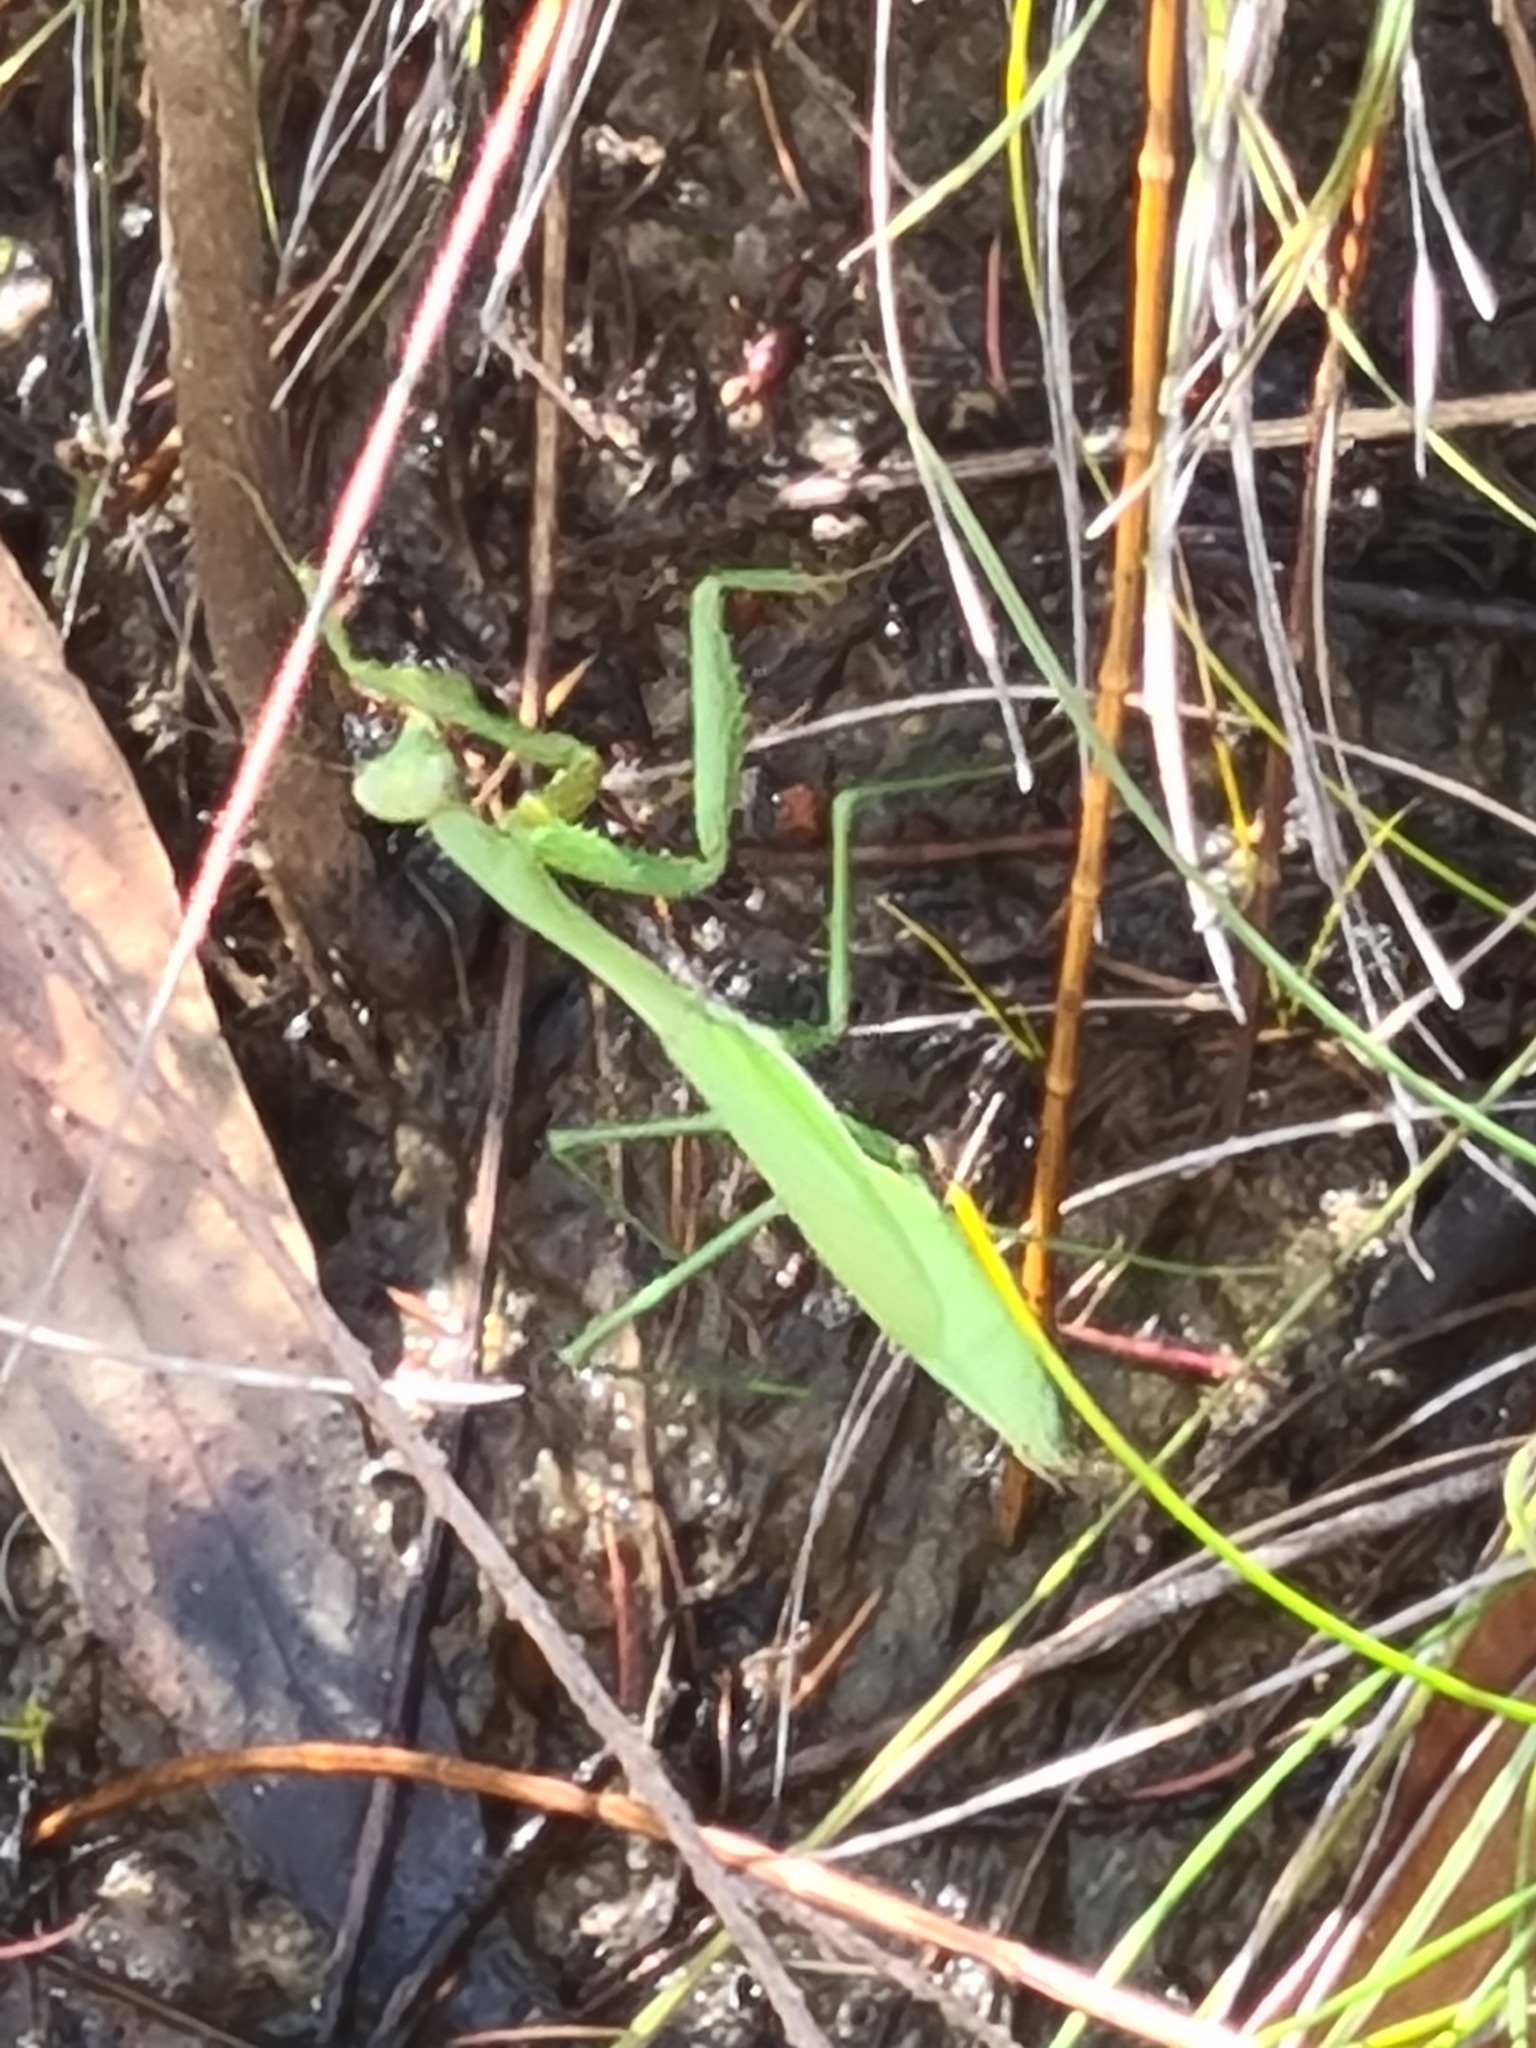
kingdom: Animalia
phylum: Arthropoda
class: Insecta
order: Mantodea
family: Mantidae
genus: Pseudomantis
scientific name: Pseudomantis albofimbriata
